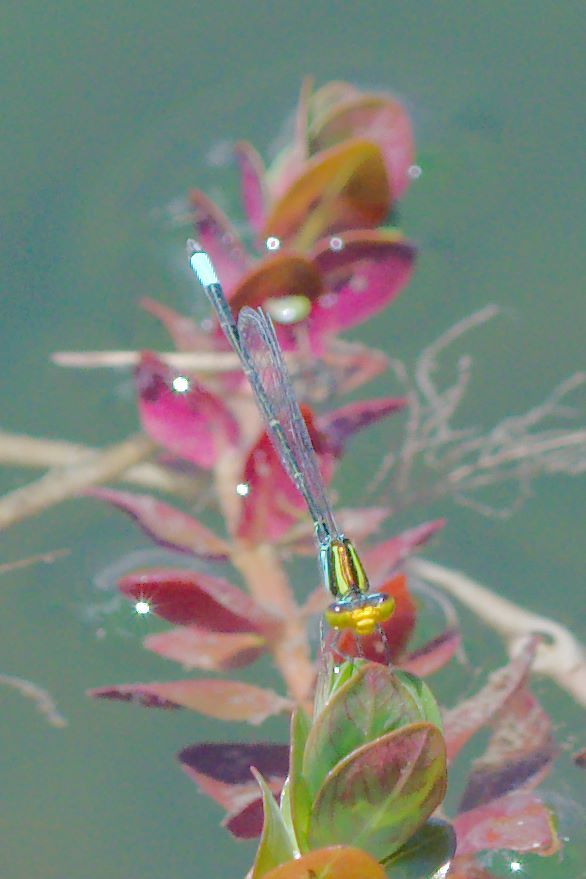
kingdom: Animalia
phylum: Arthropoda
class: Insecta
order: Odonata
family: Coenagrionidae
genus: Neoerythromma
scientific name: Neoerythromma cultellatum
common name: Caribbean yellowface
